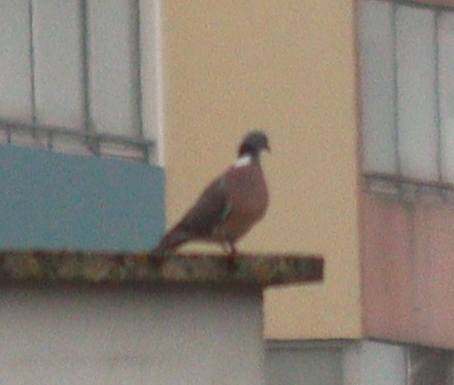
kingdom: Animalia
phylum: Chordata
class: Aves
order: Columbiformes
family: Columbidae
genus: Columba
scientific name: Columba palumbus
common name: Common wood pigeon
